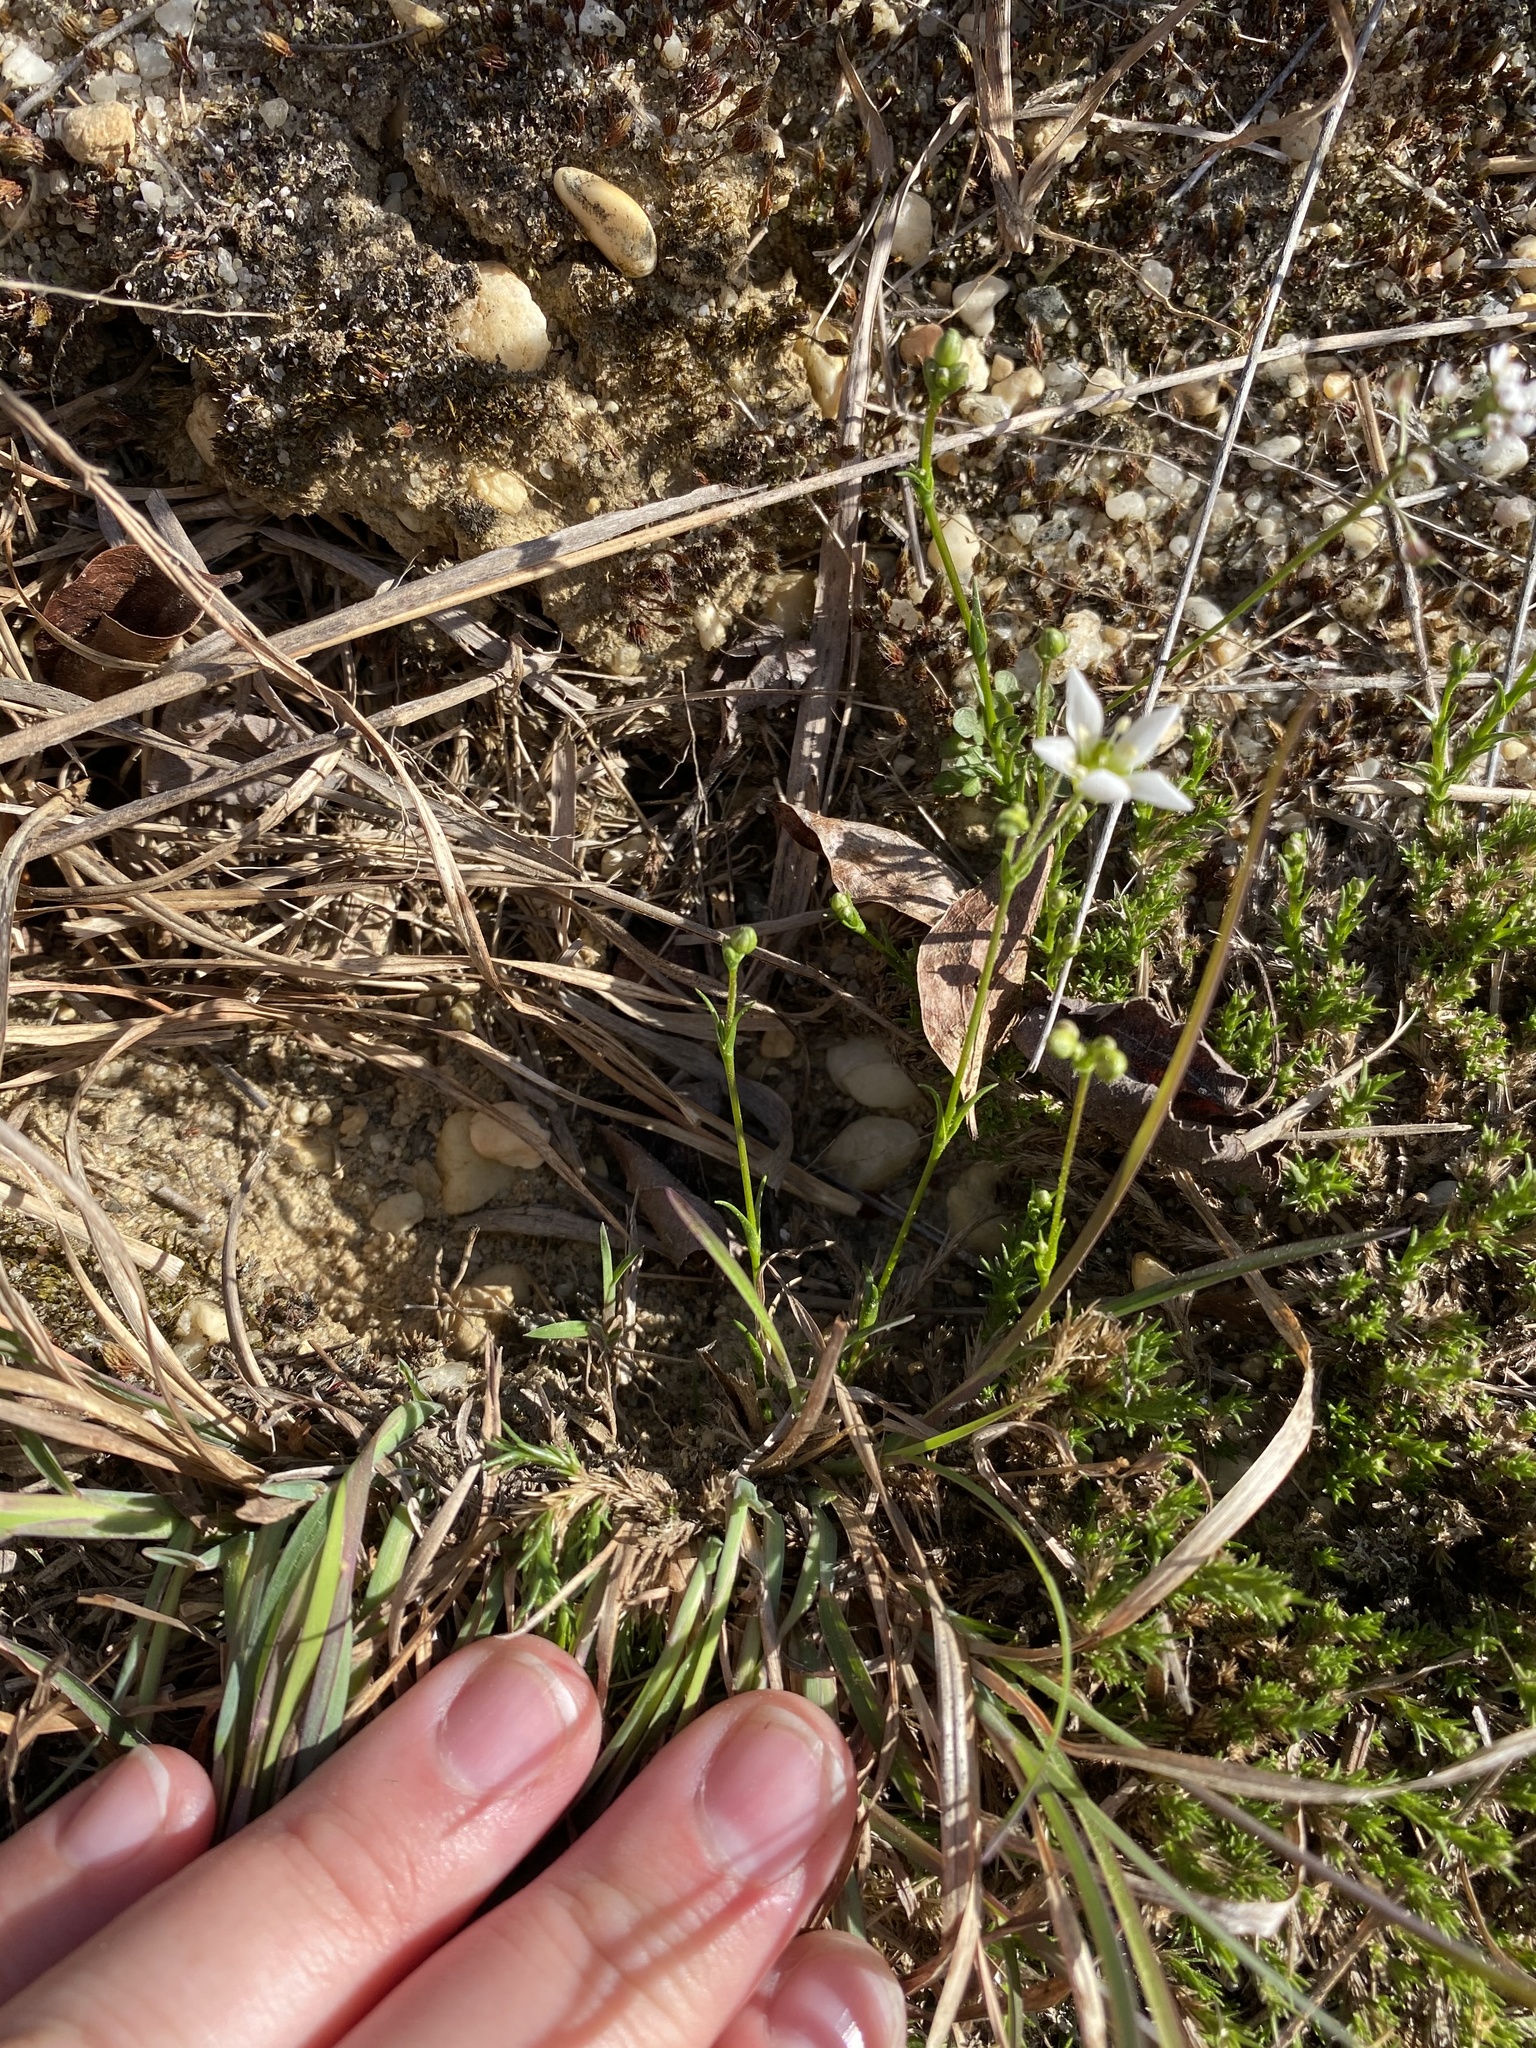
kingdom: Plantae
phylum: Tracheophyta
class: Magnoliopsida
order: Caryophyllales
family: Caryophyllaceae
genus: Geocarpon
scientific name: Geocarpon carolinianum
